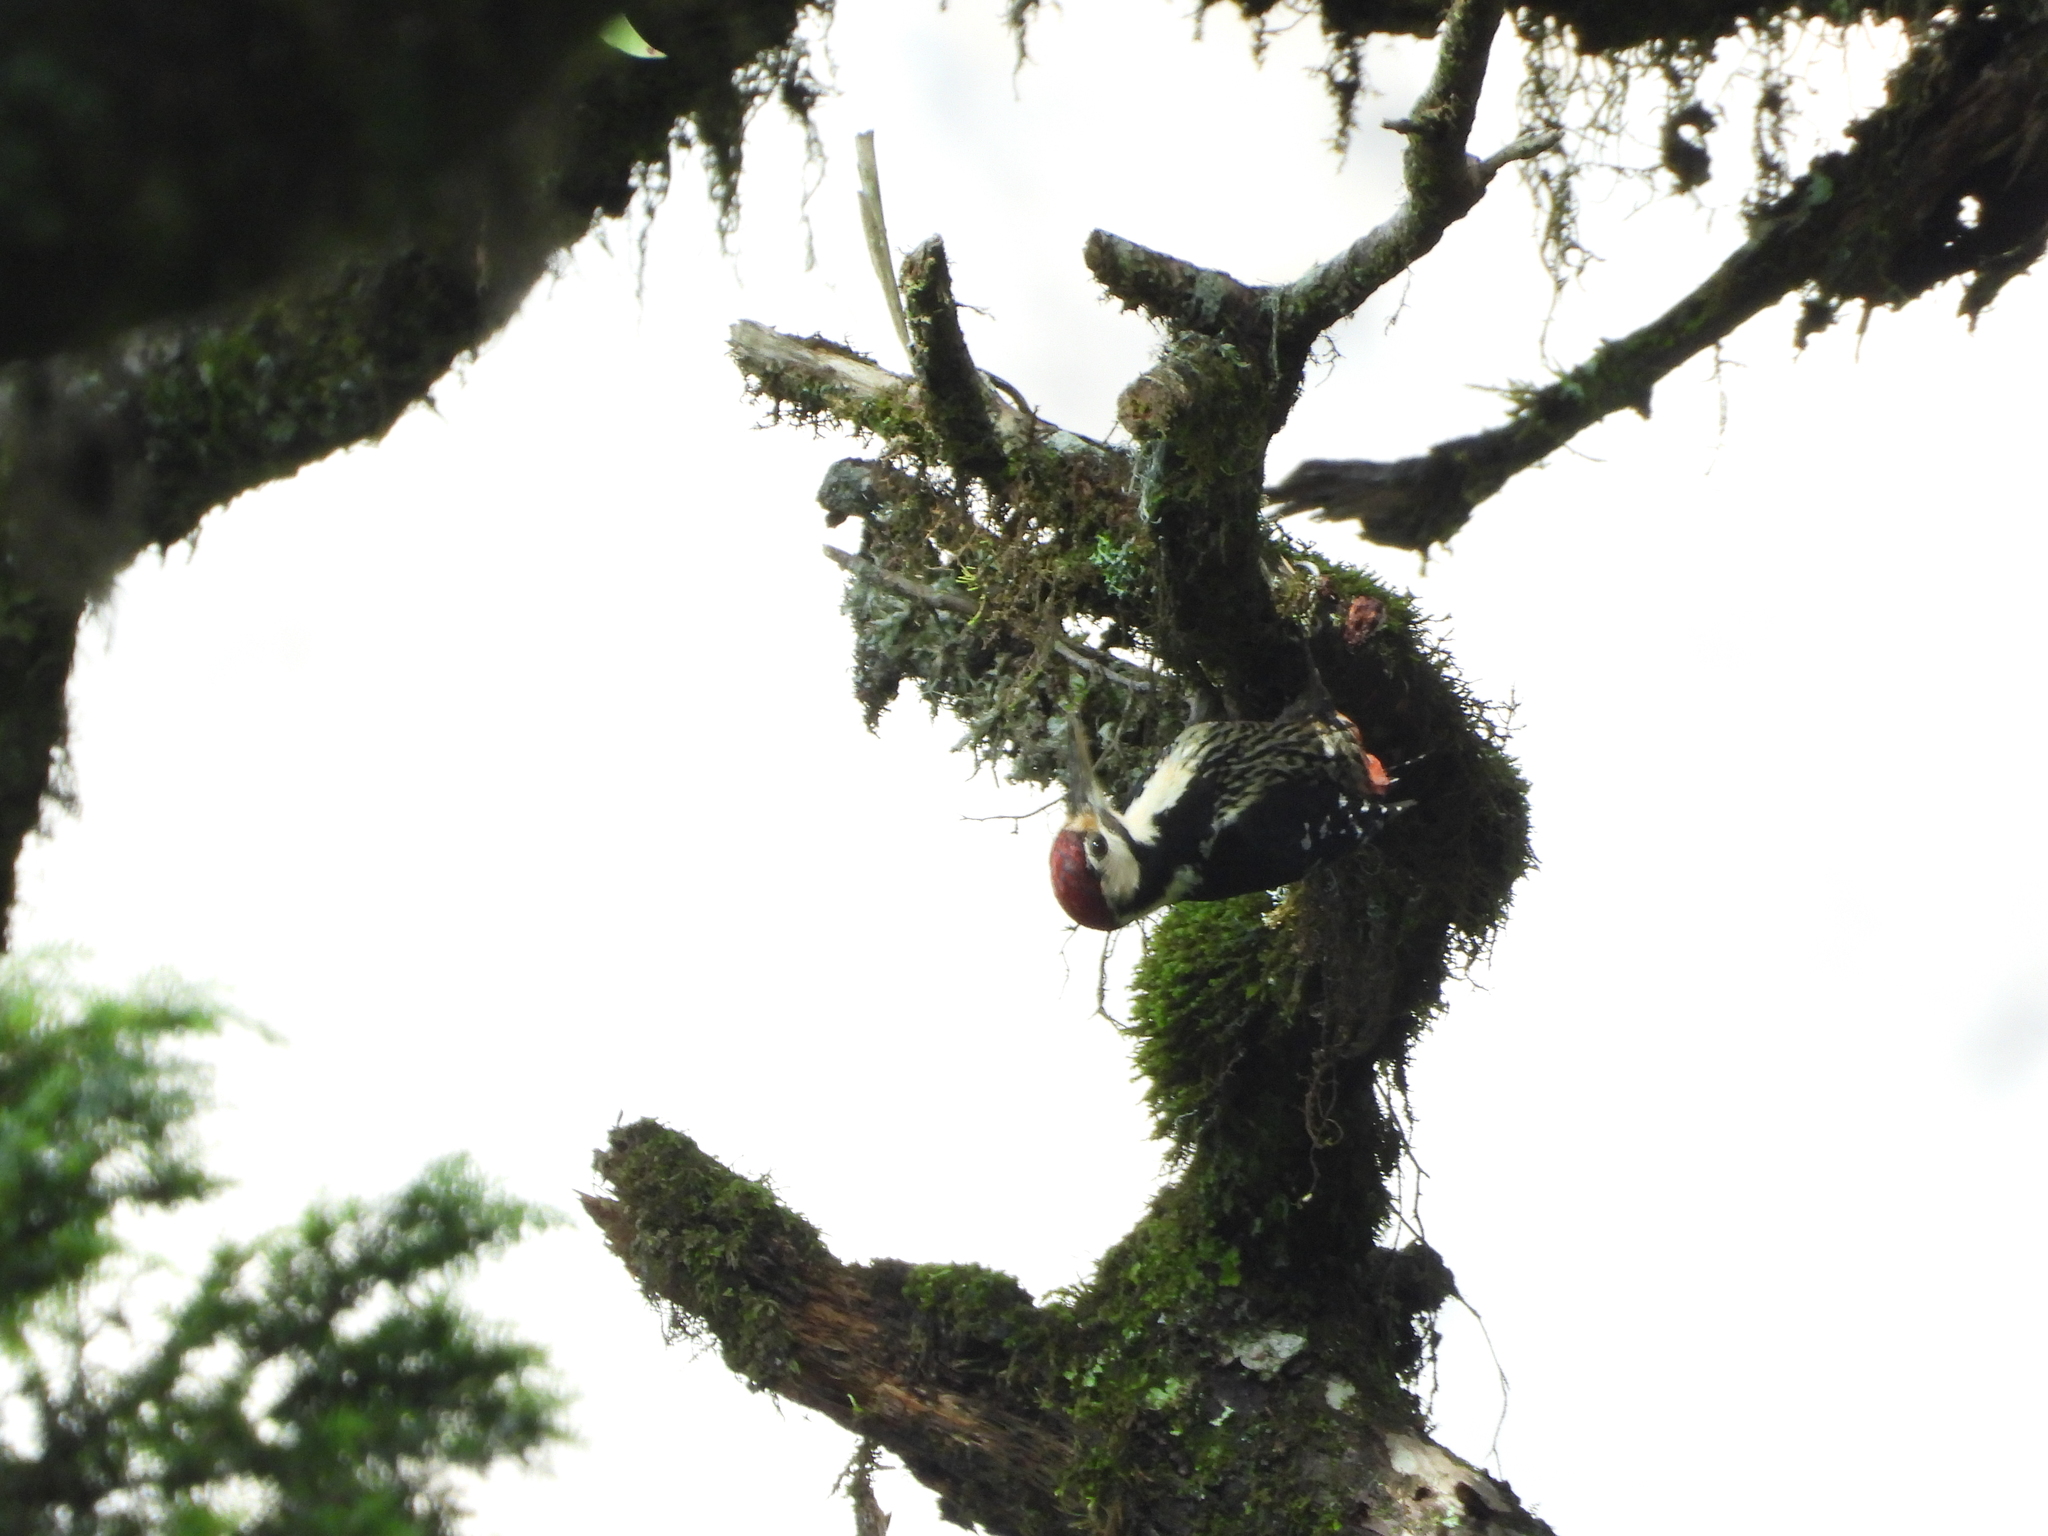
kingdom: Animalia
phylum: Chordata
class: Aves
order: Piciformes
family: Picidae
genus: Dendrocopos
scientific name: Dendrocopos leucotos
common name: White-backed woodpecker
